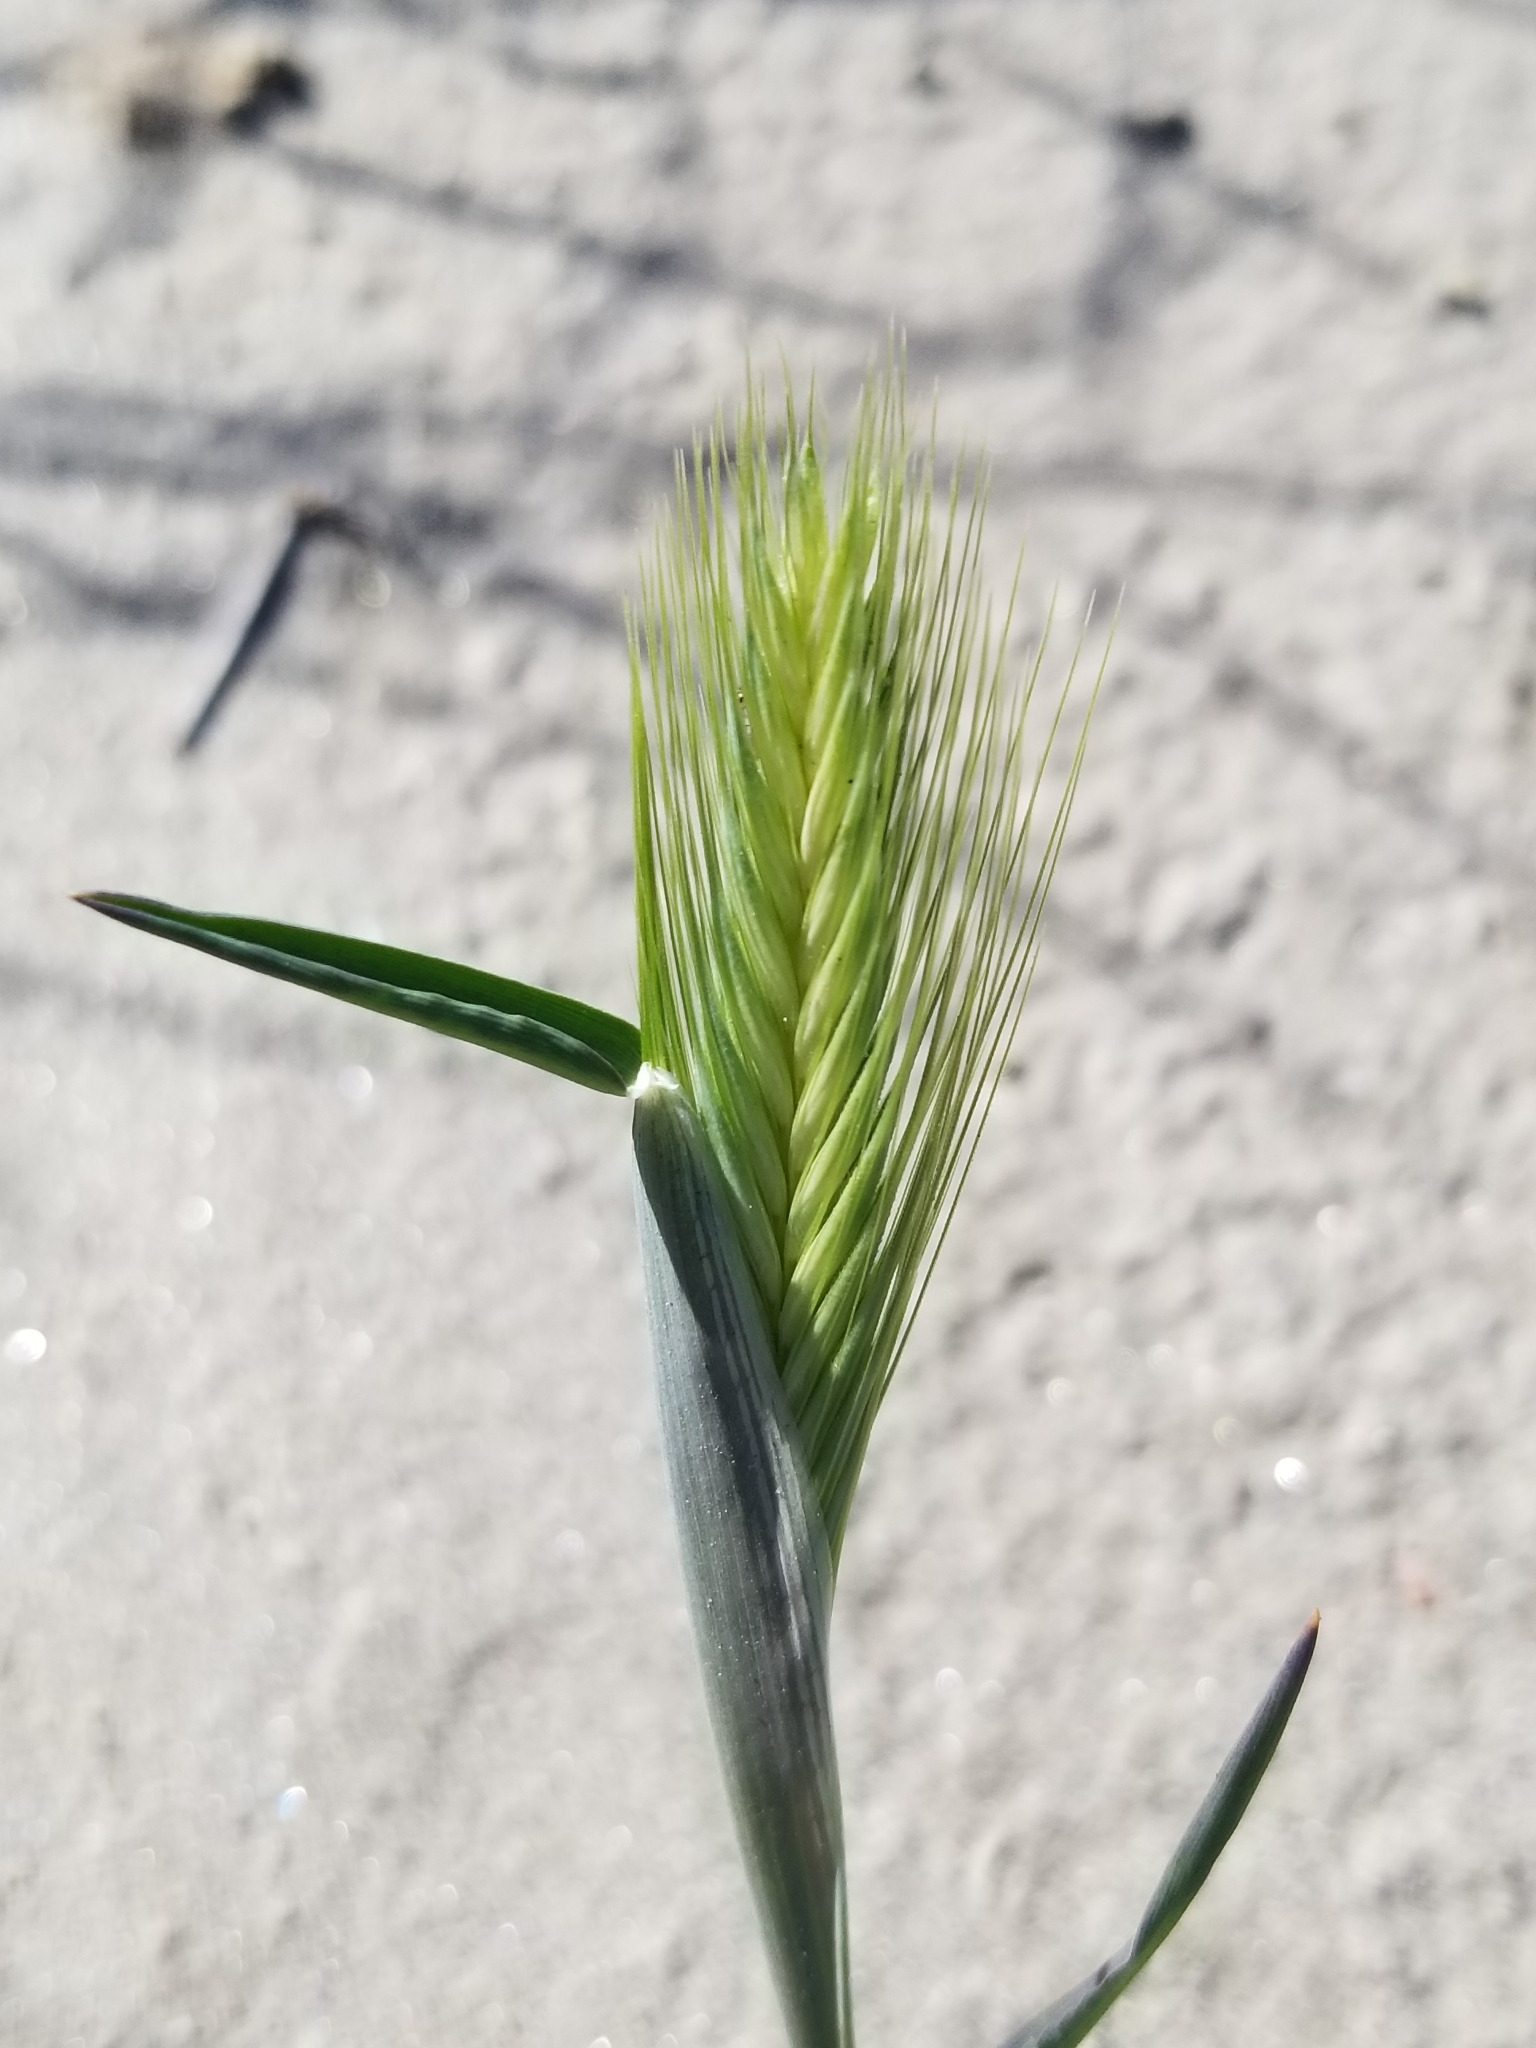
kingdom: Plantae
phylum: Tracheophyta
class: Liliopsida
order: Poales
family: Poaceae
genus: Hordeum
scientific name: Hordeum murinum
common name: Wall barley
